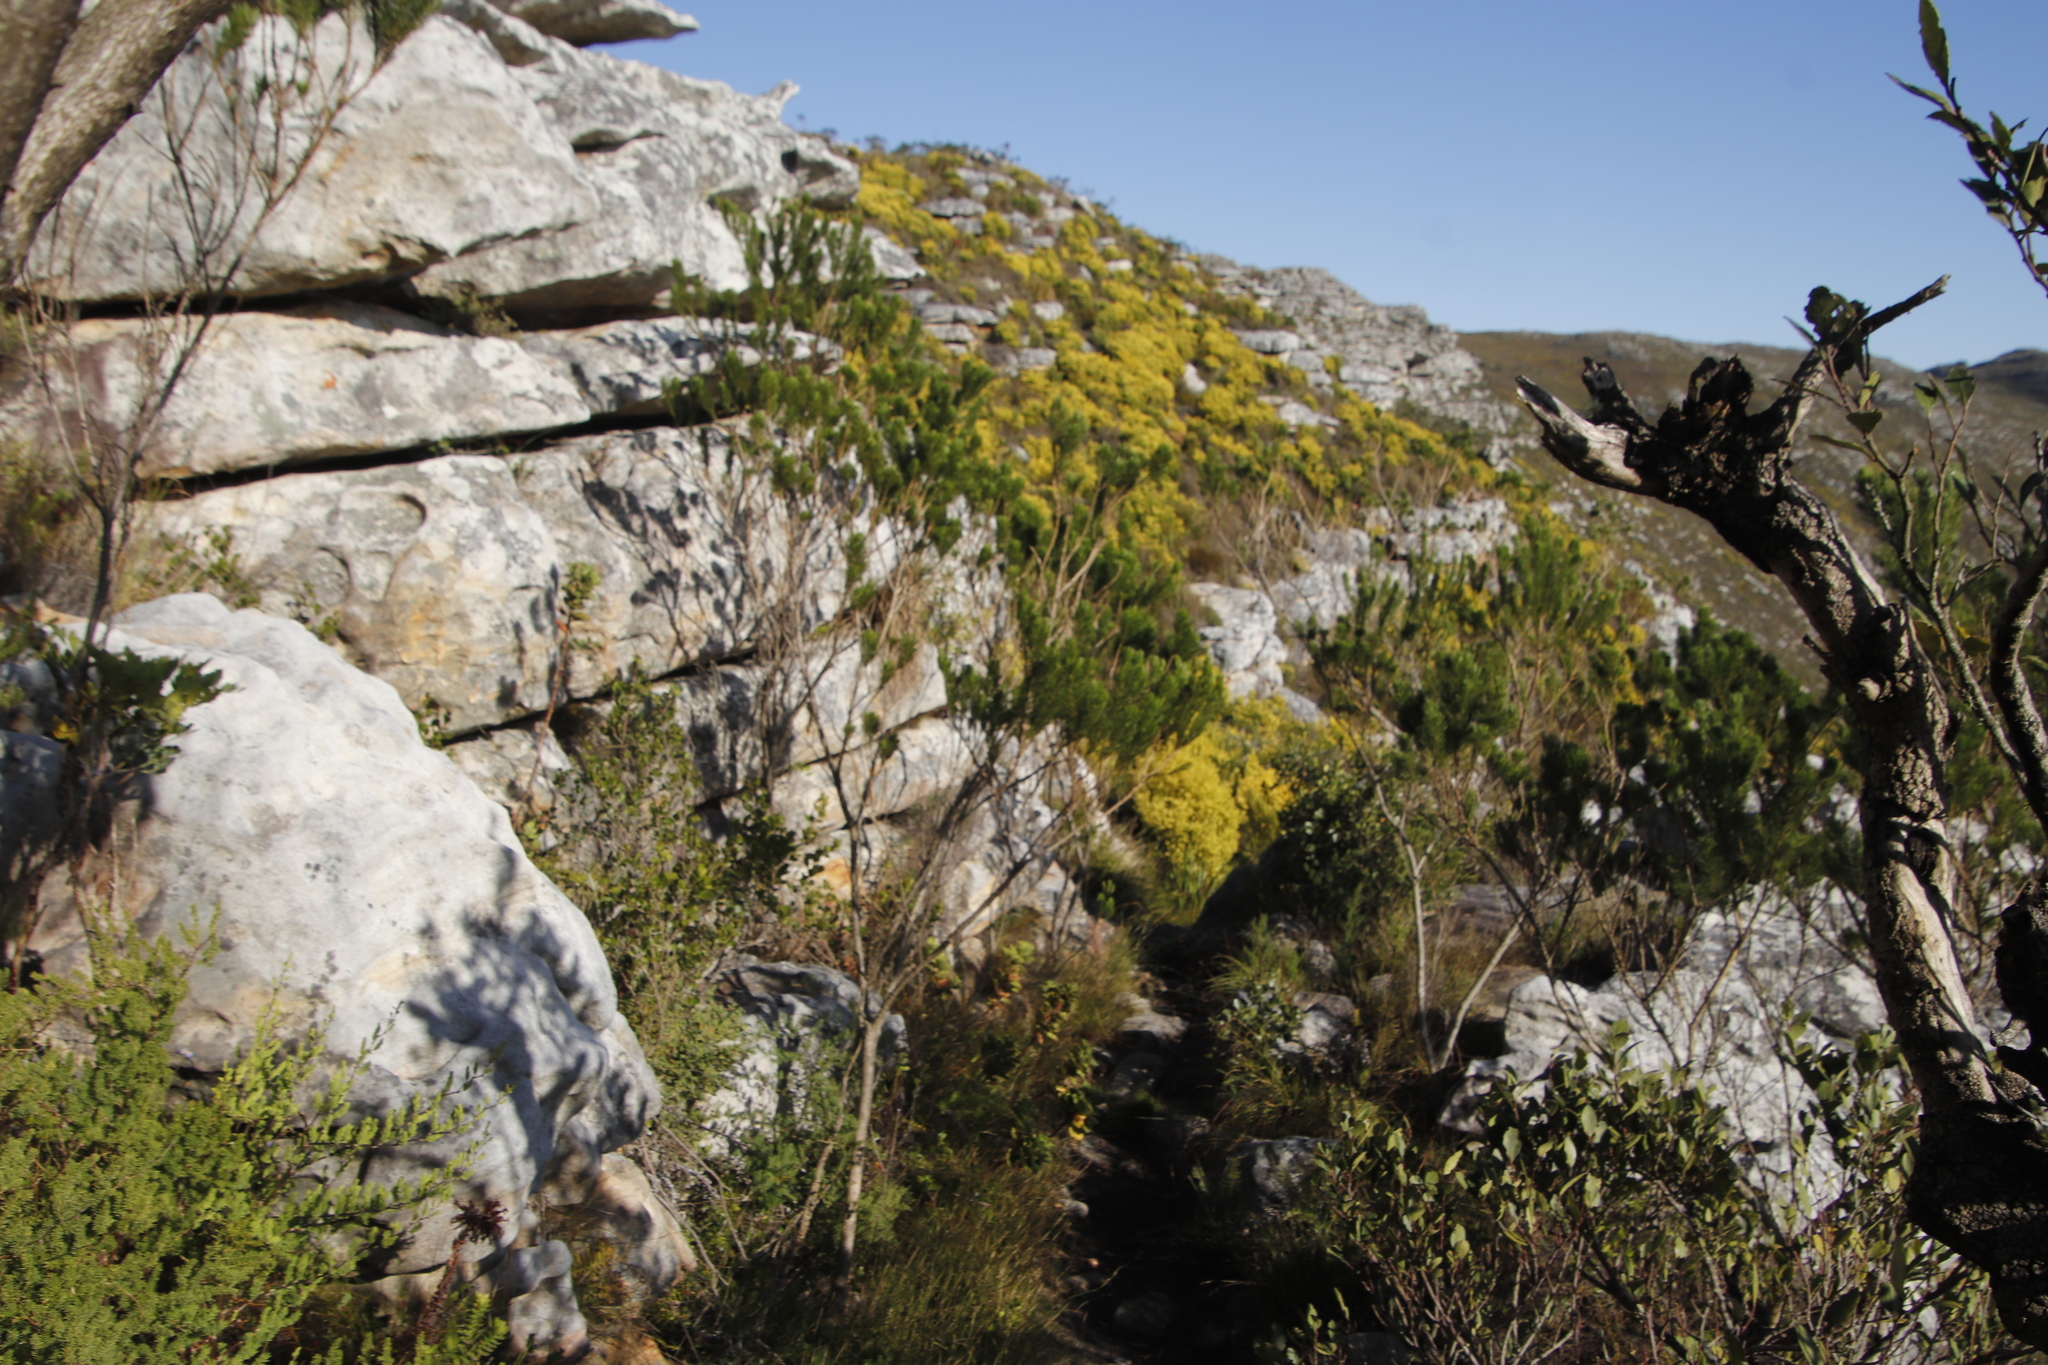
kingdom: Plantae
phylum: Tracheophyta
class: Magnoliopsida
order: Fabales
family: Fabaceae
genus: Psoralea
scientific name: Psoralea pinnata
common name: African scurfpea
